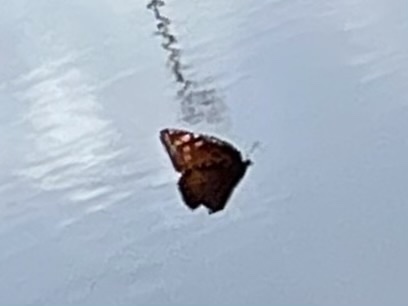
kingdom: Animalia
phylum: Arthropoda
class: Insecta
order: Lepidoptera
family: Nymphalidae
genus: Danaus
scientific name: Danaus gilippus
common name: Queen
